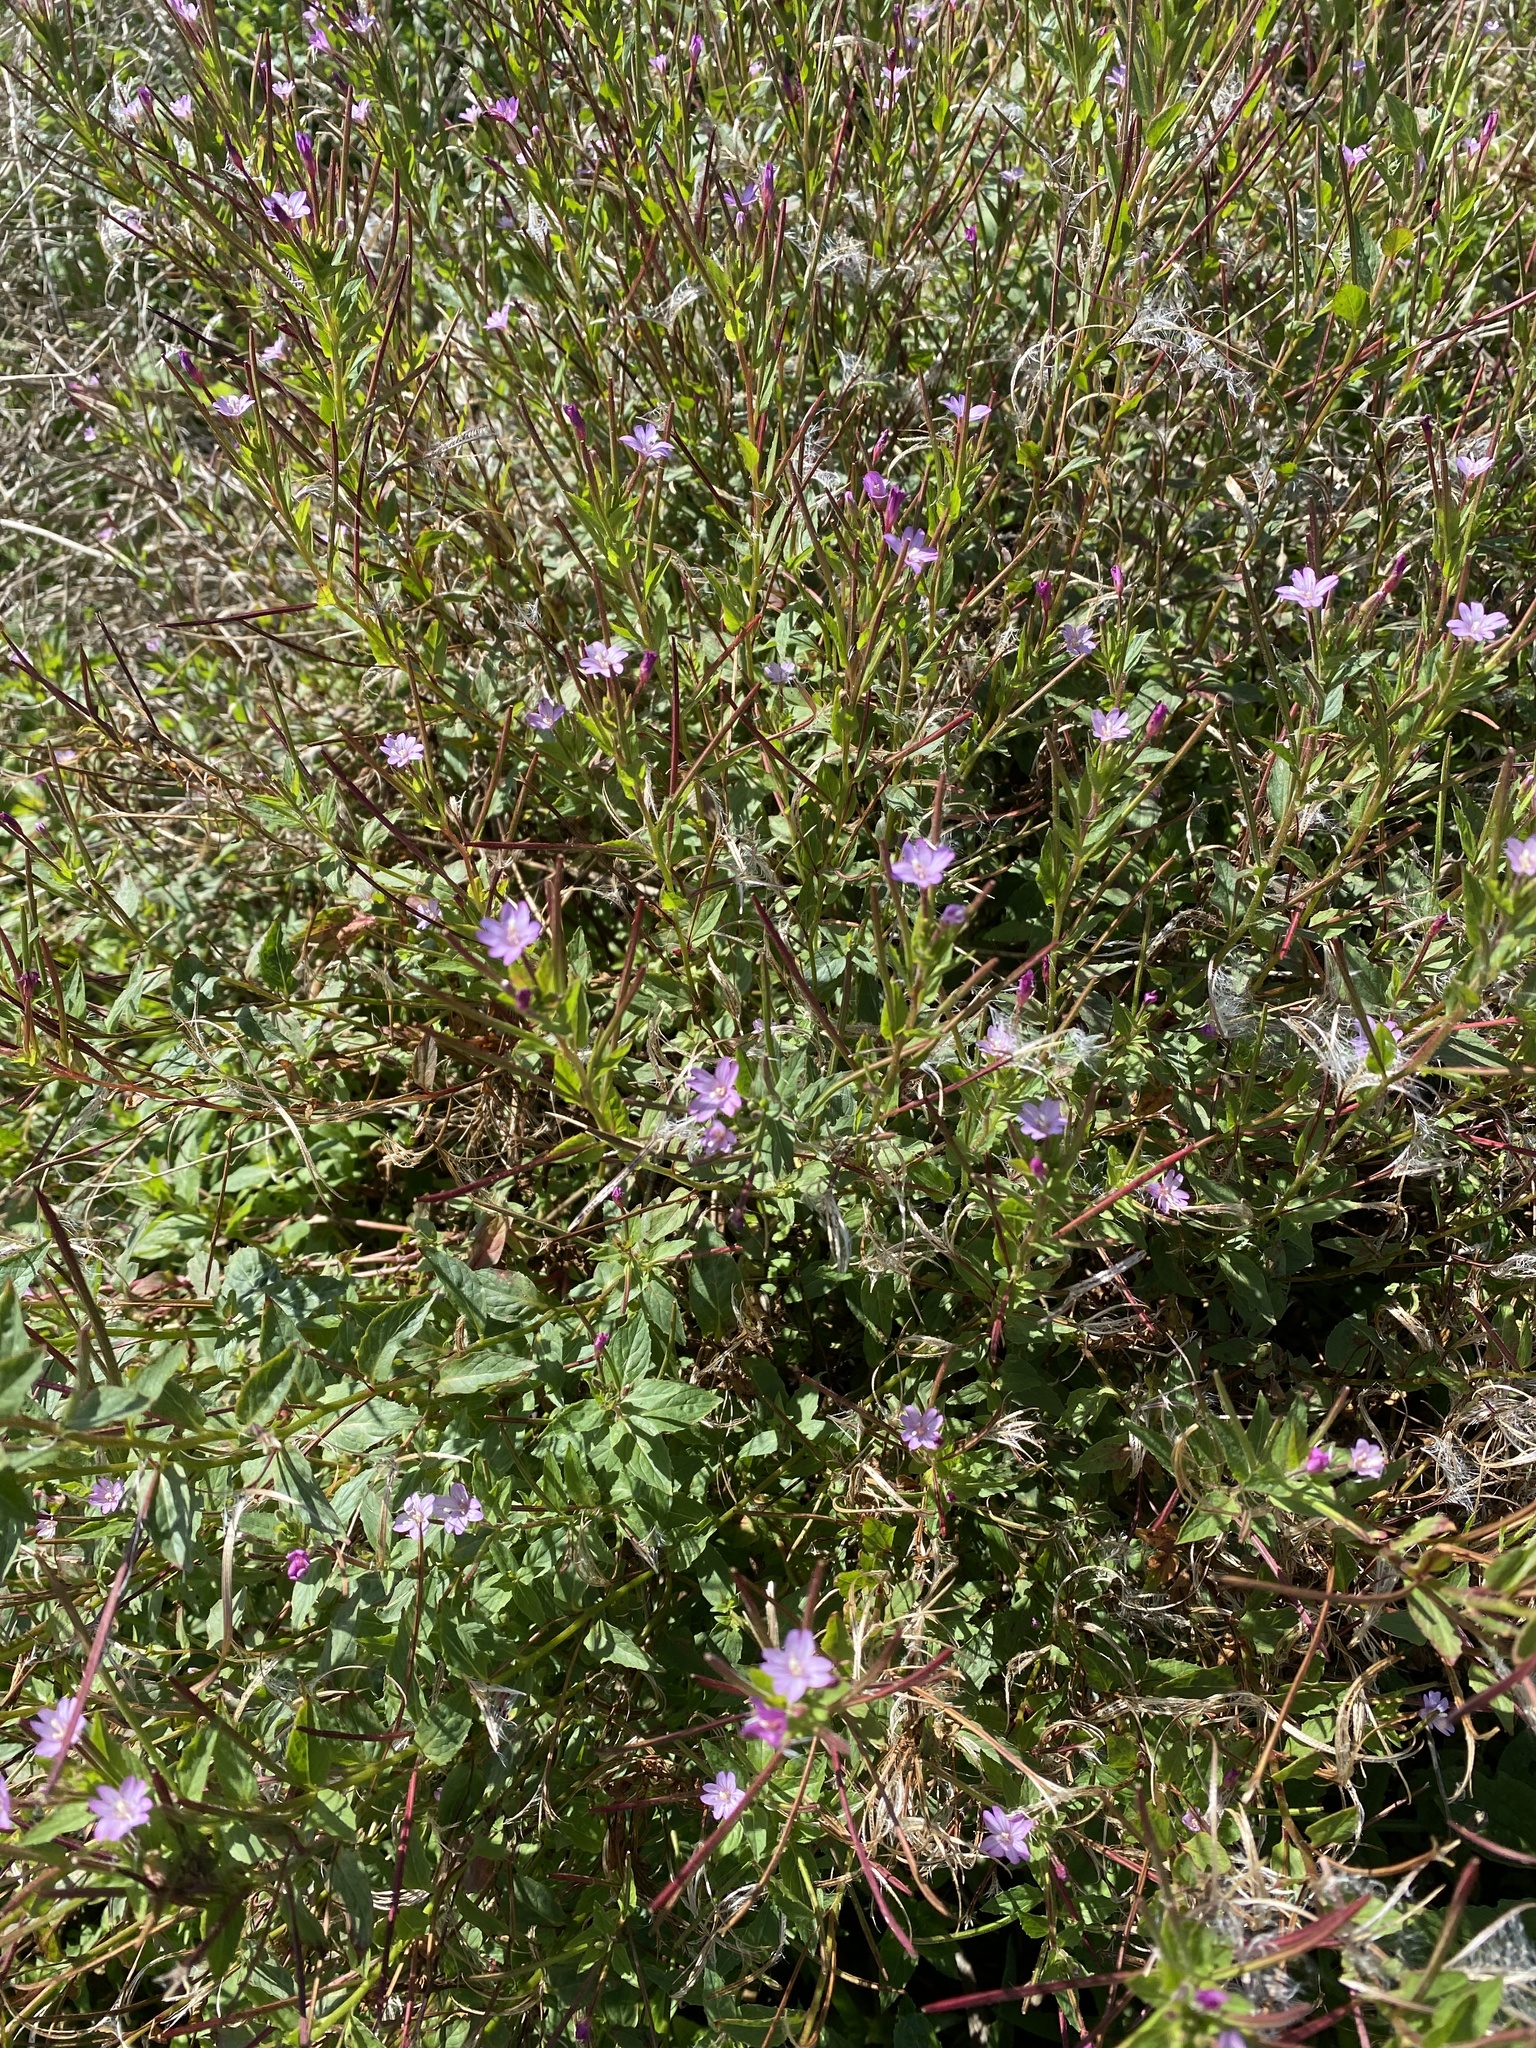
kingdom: Plantae
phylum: Tracheophyta
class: Magnoliopsida
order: Myrtales
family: Onagraceae
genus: Epilobium
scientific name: Epilobium ciliatum
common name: American willowherb
